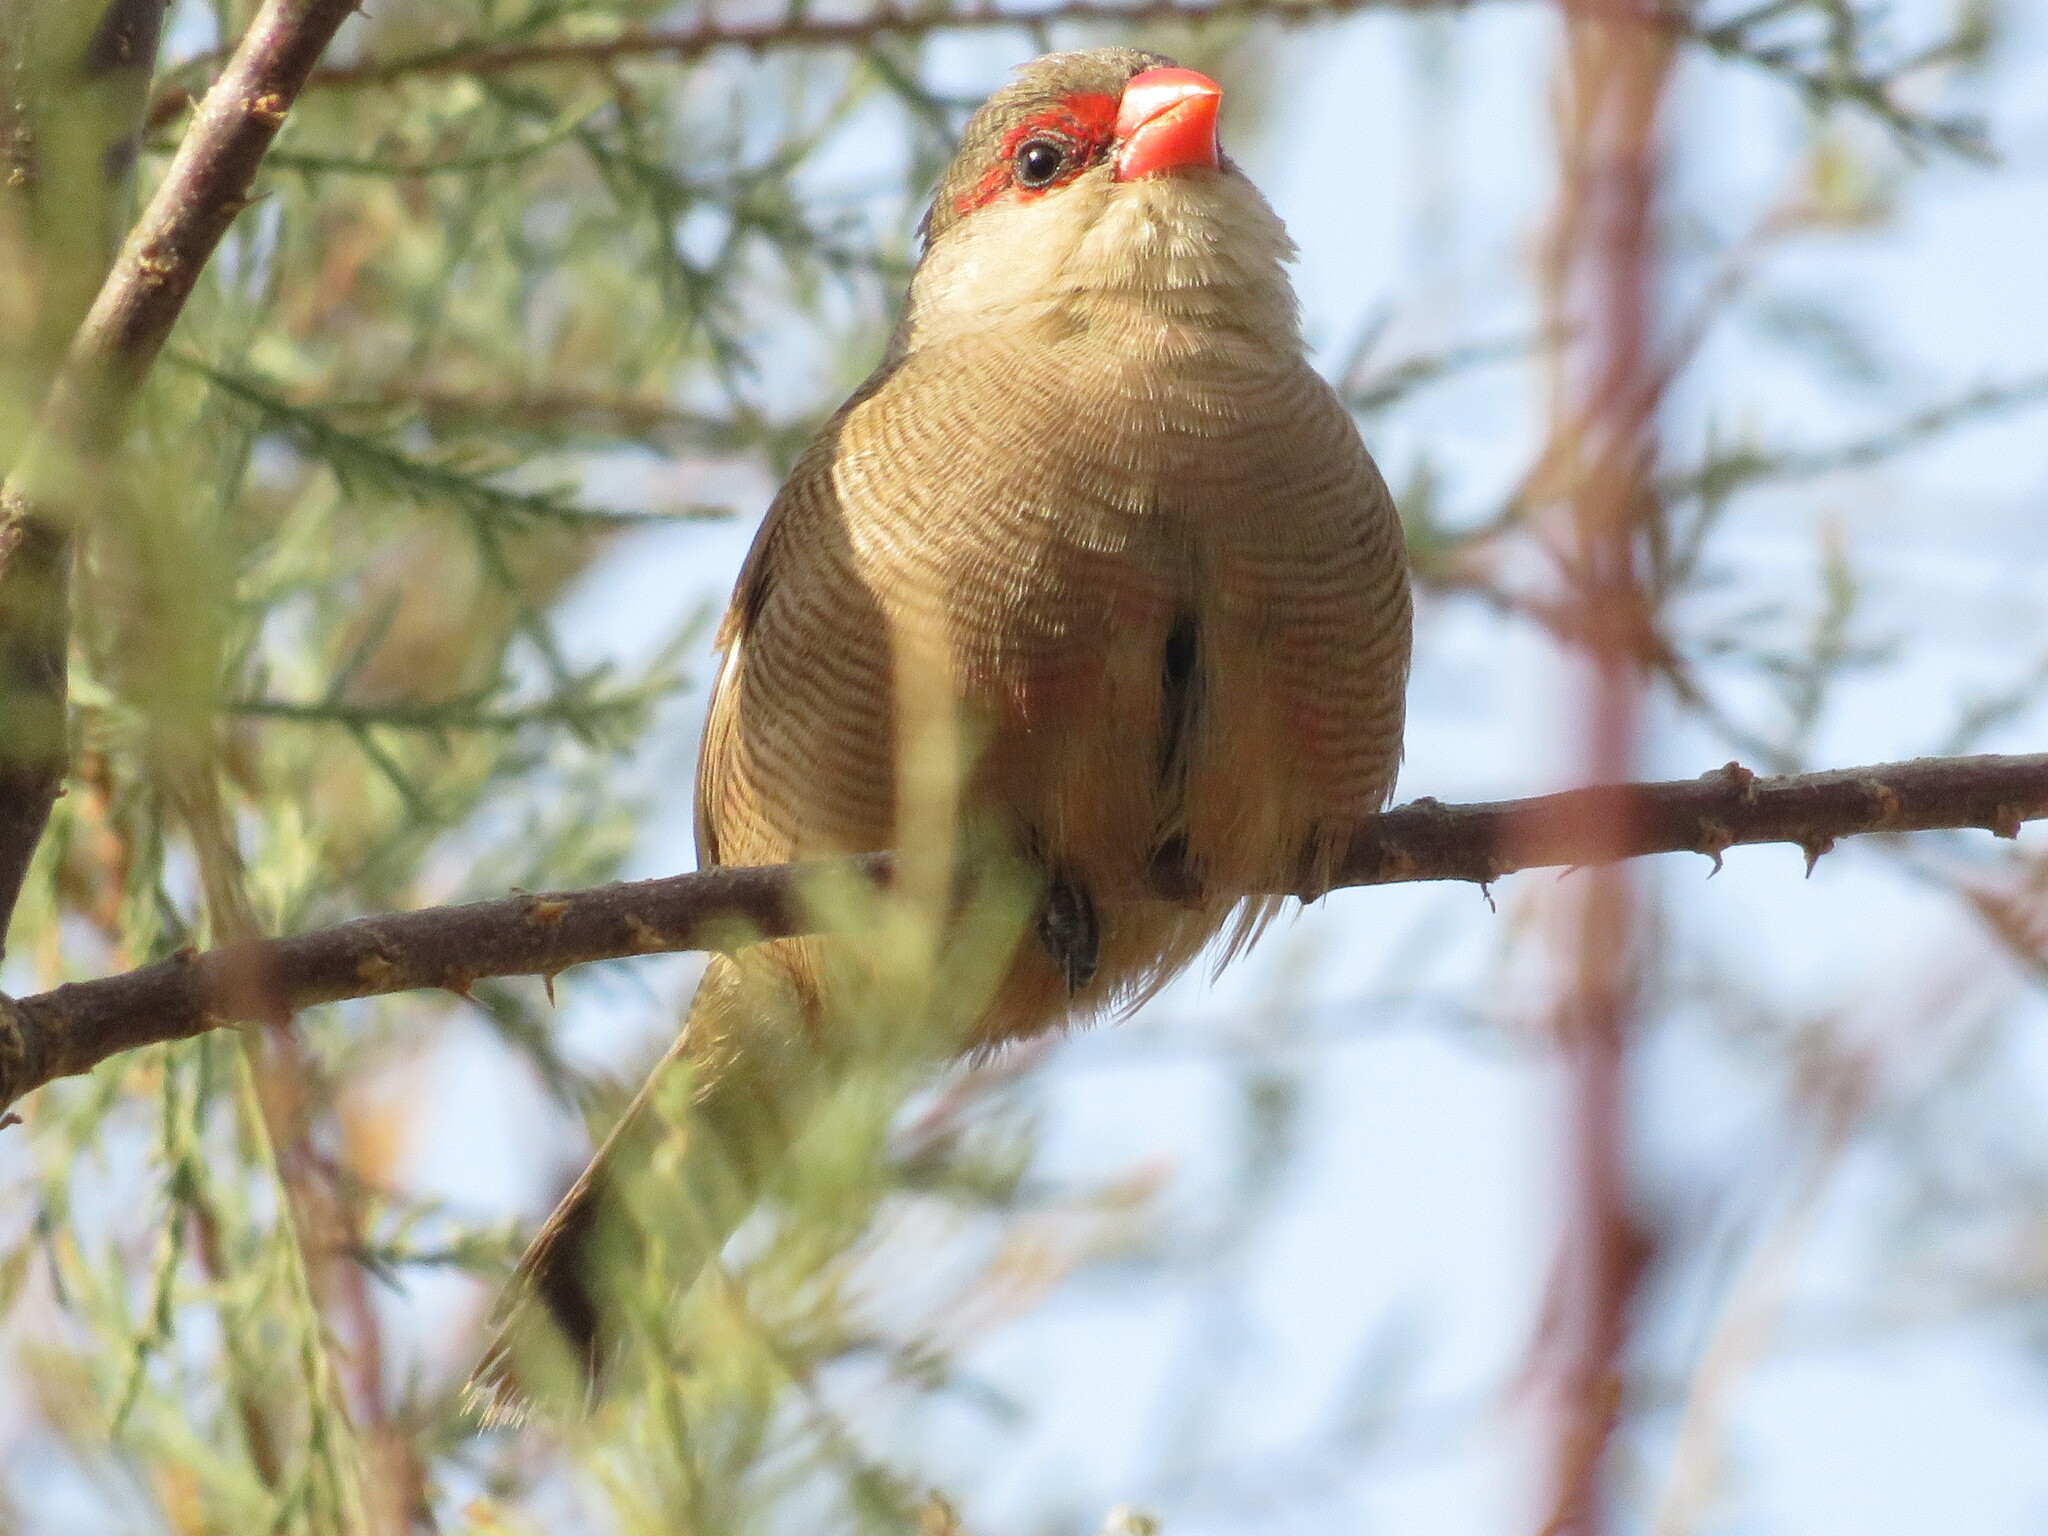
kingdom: Animalia
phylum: Chordata
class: Aves
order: Passeriformes
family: Estrildidae
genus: Estrilda
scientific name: Estrilda astrild
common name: Common waxbill
